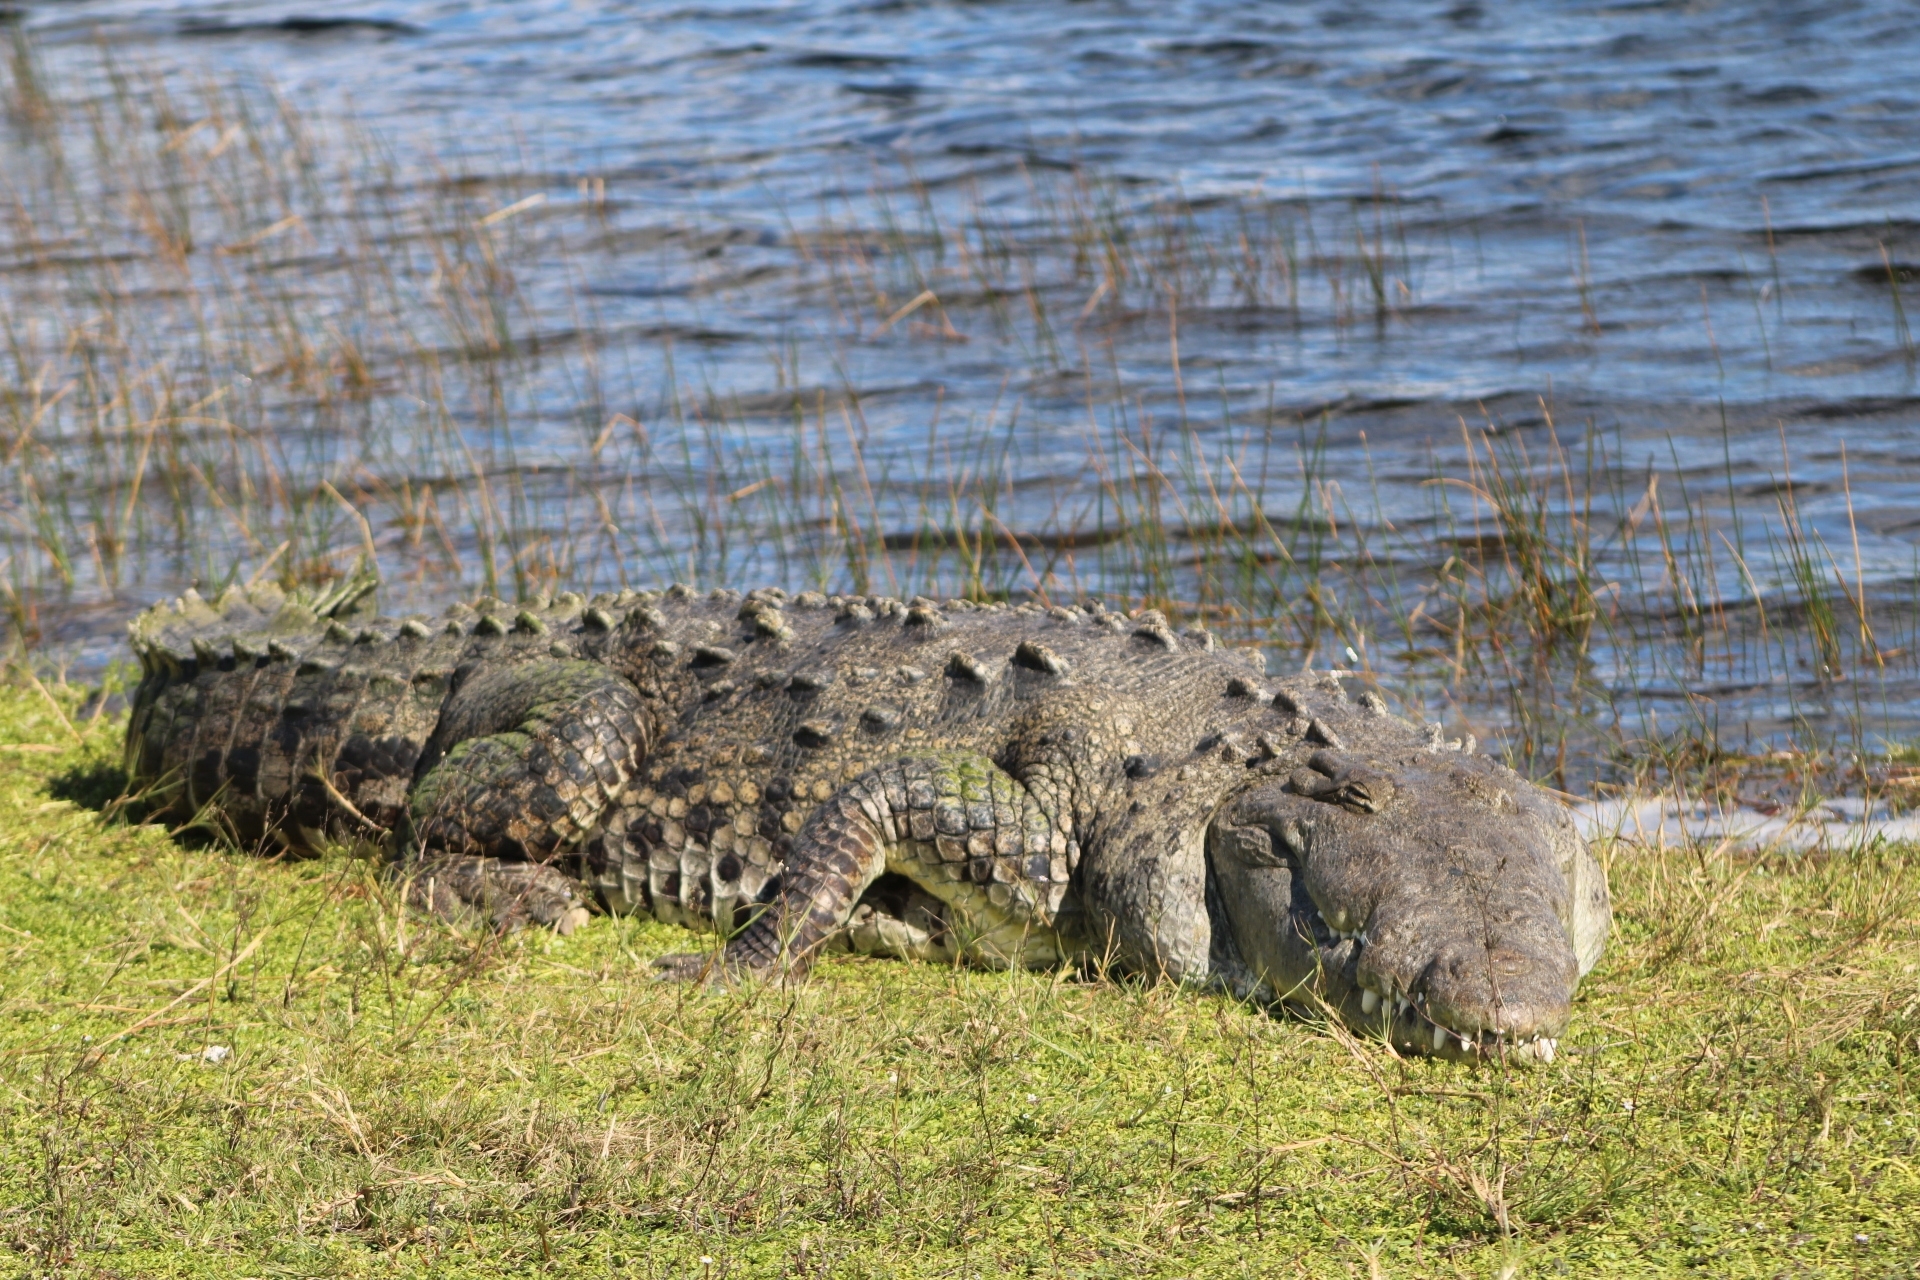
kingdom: Animalia
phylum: Chordata
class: Crocodylia
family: Crocodylidae
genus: Crocodylus
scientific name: Crocodylus acutus
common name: American crocodile
